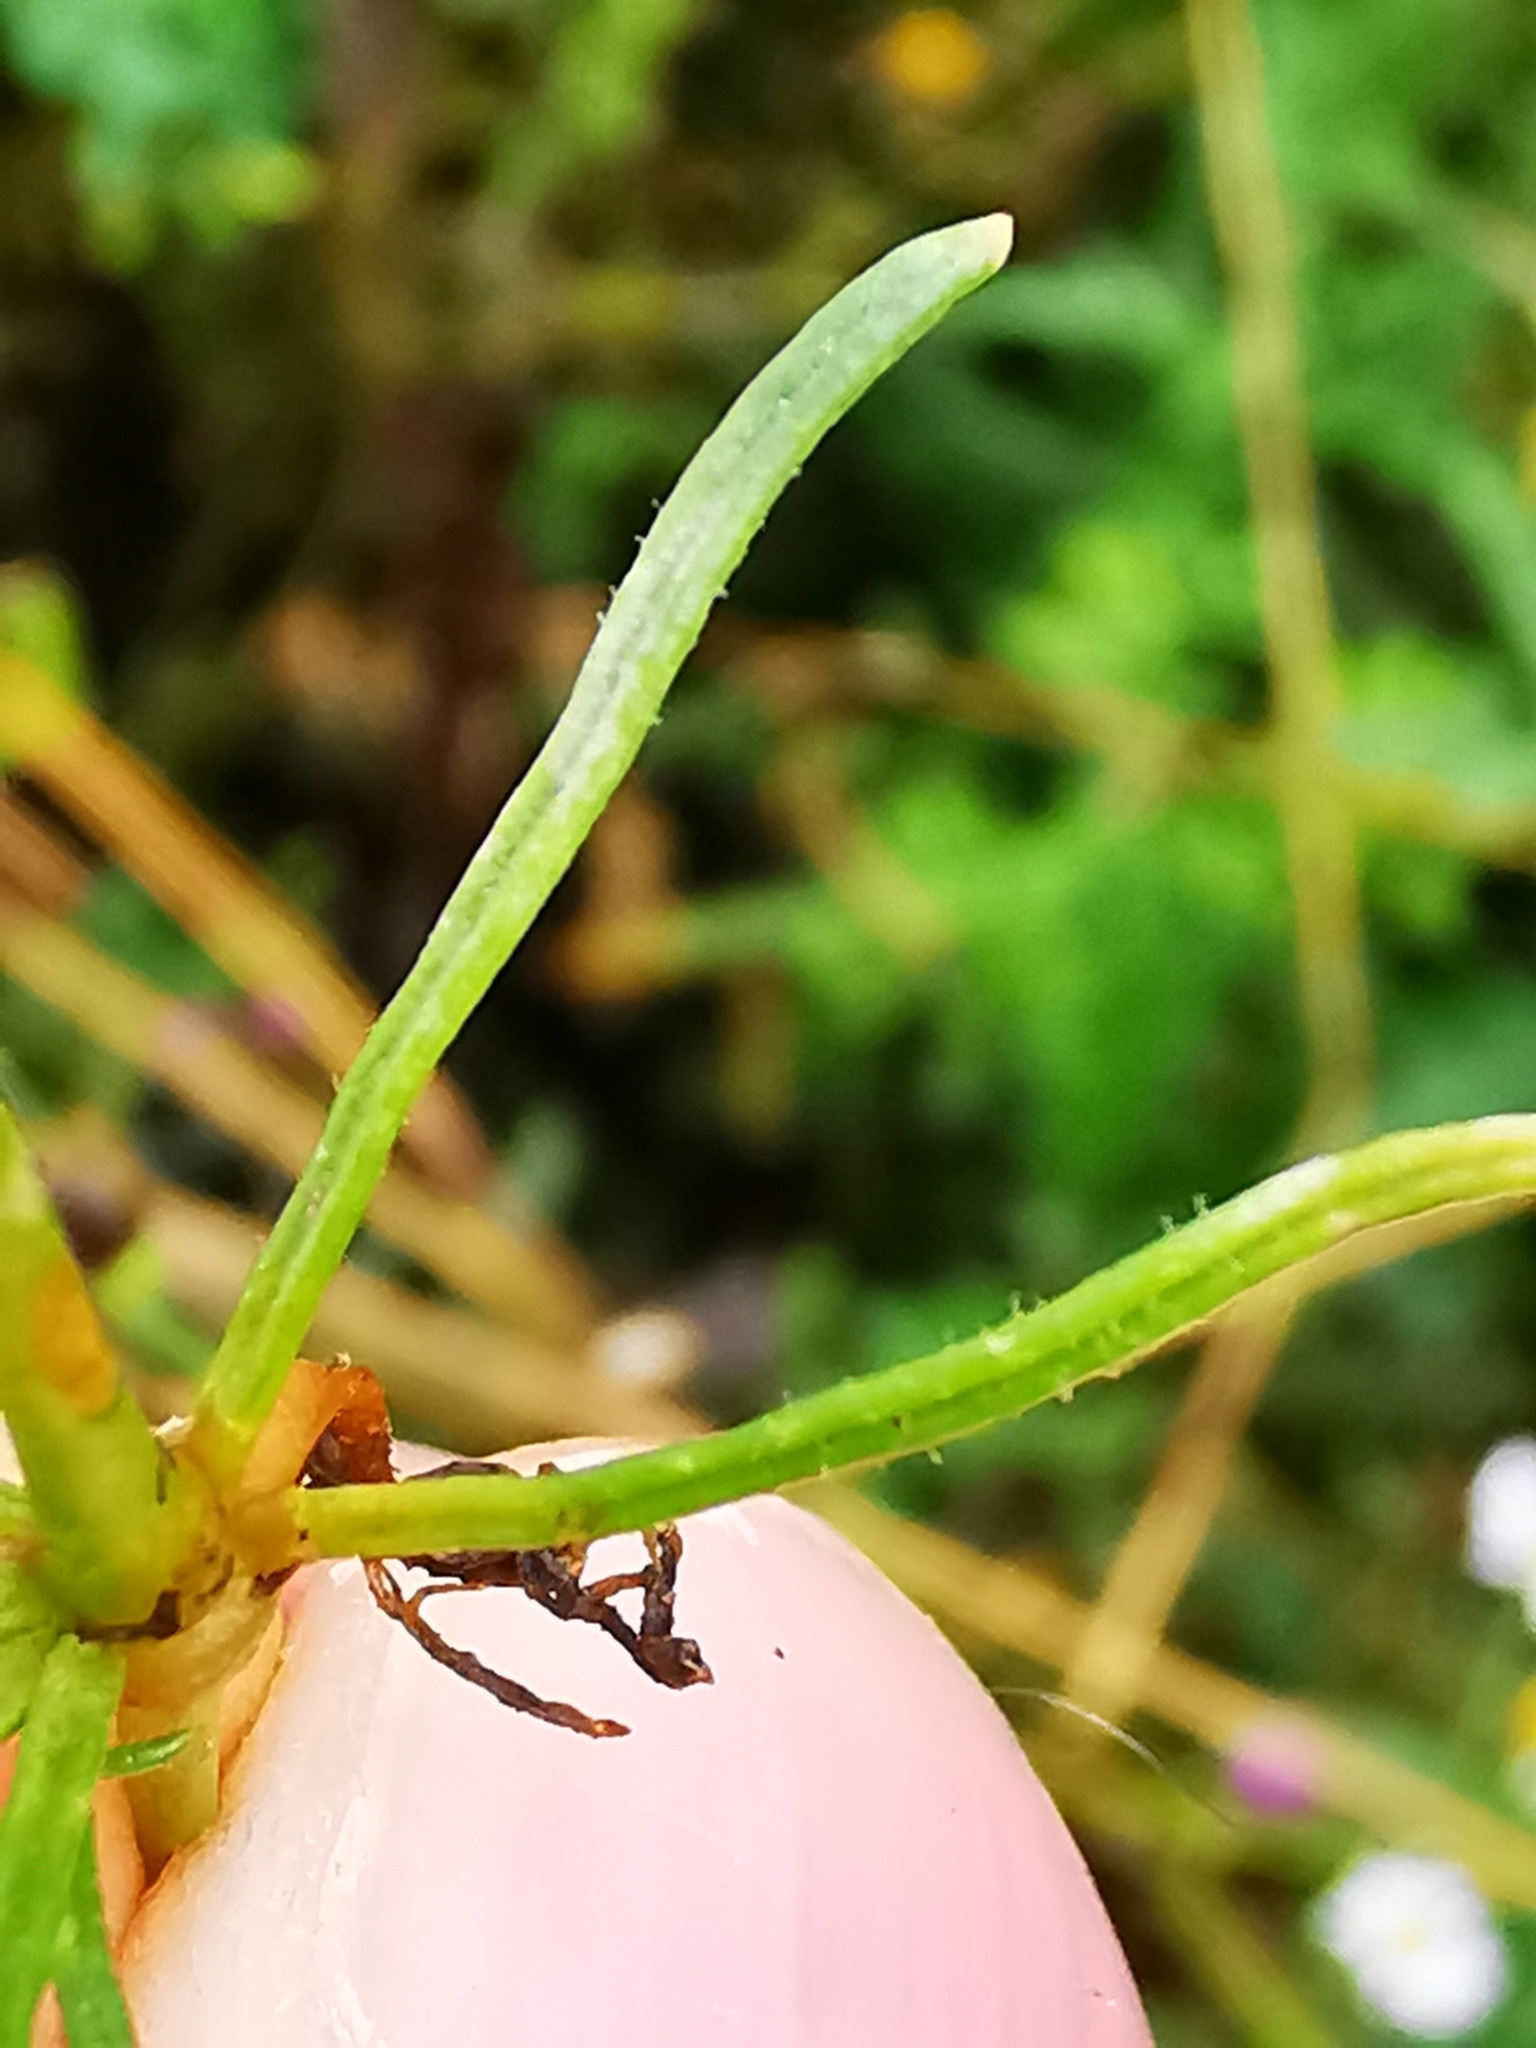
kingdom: Plantae
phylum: Tracheophyta
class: Magnoliopsida
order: Caryophyllales
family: Caryophyllaceae
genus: Spergula
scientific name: Spergula arvensis
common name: Corn spurrey
